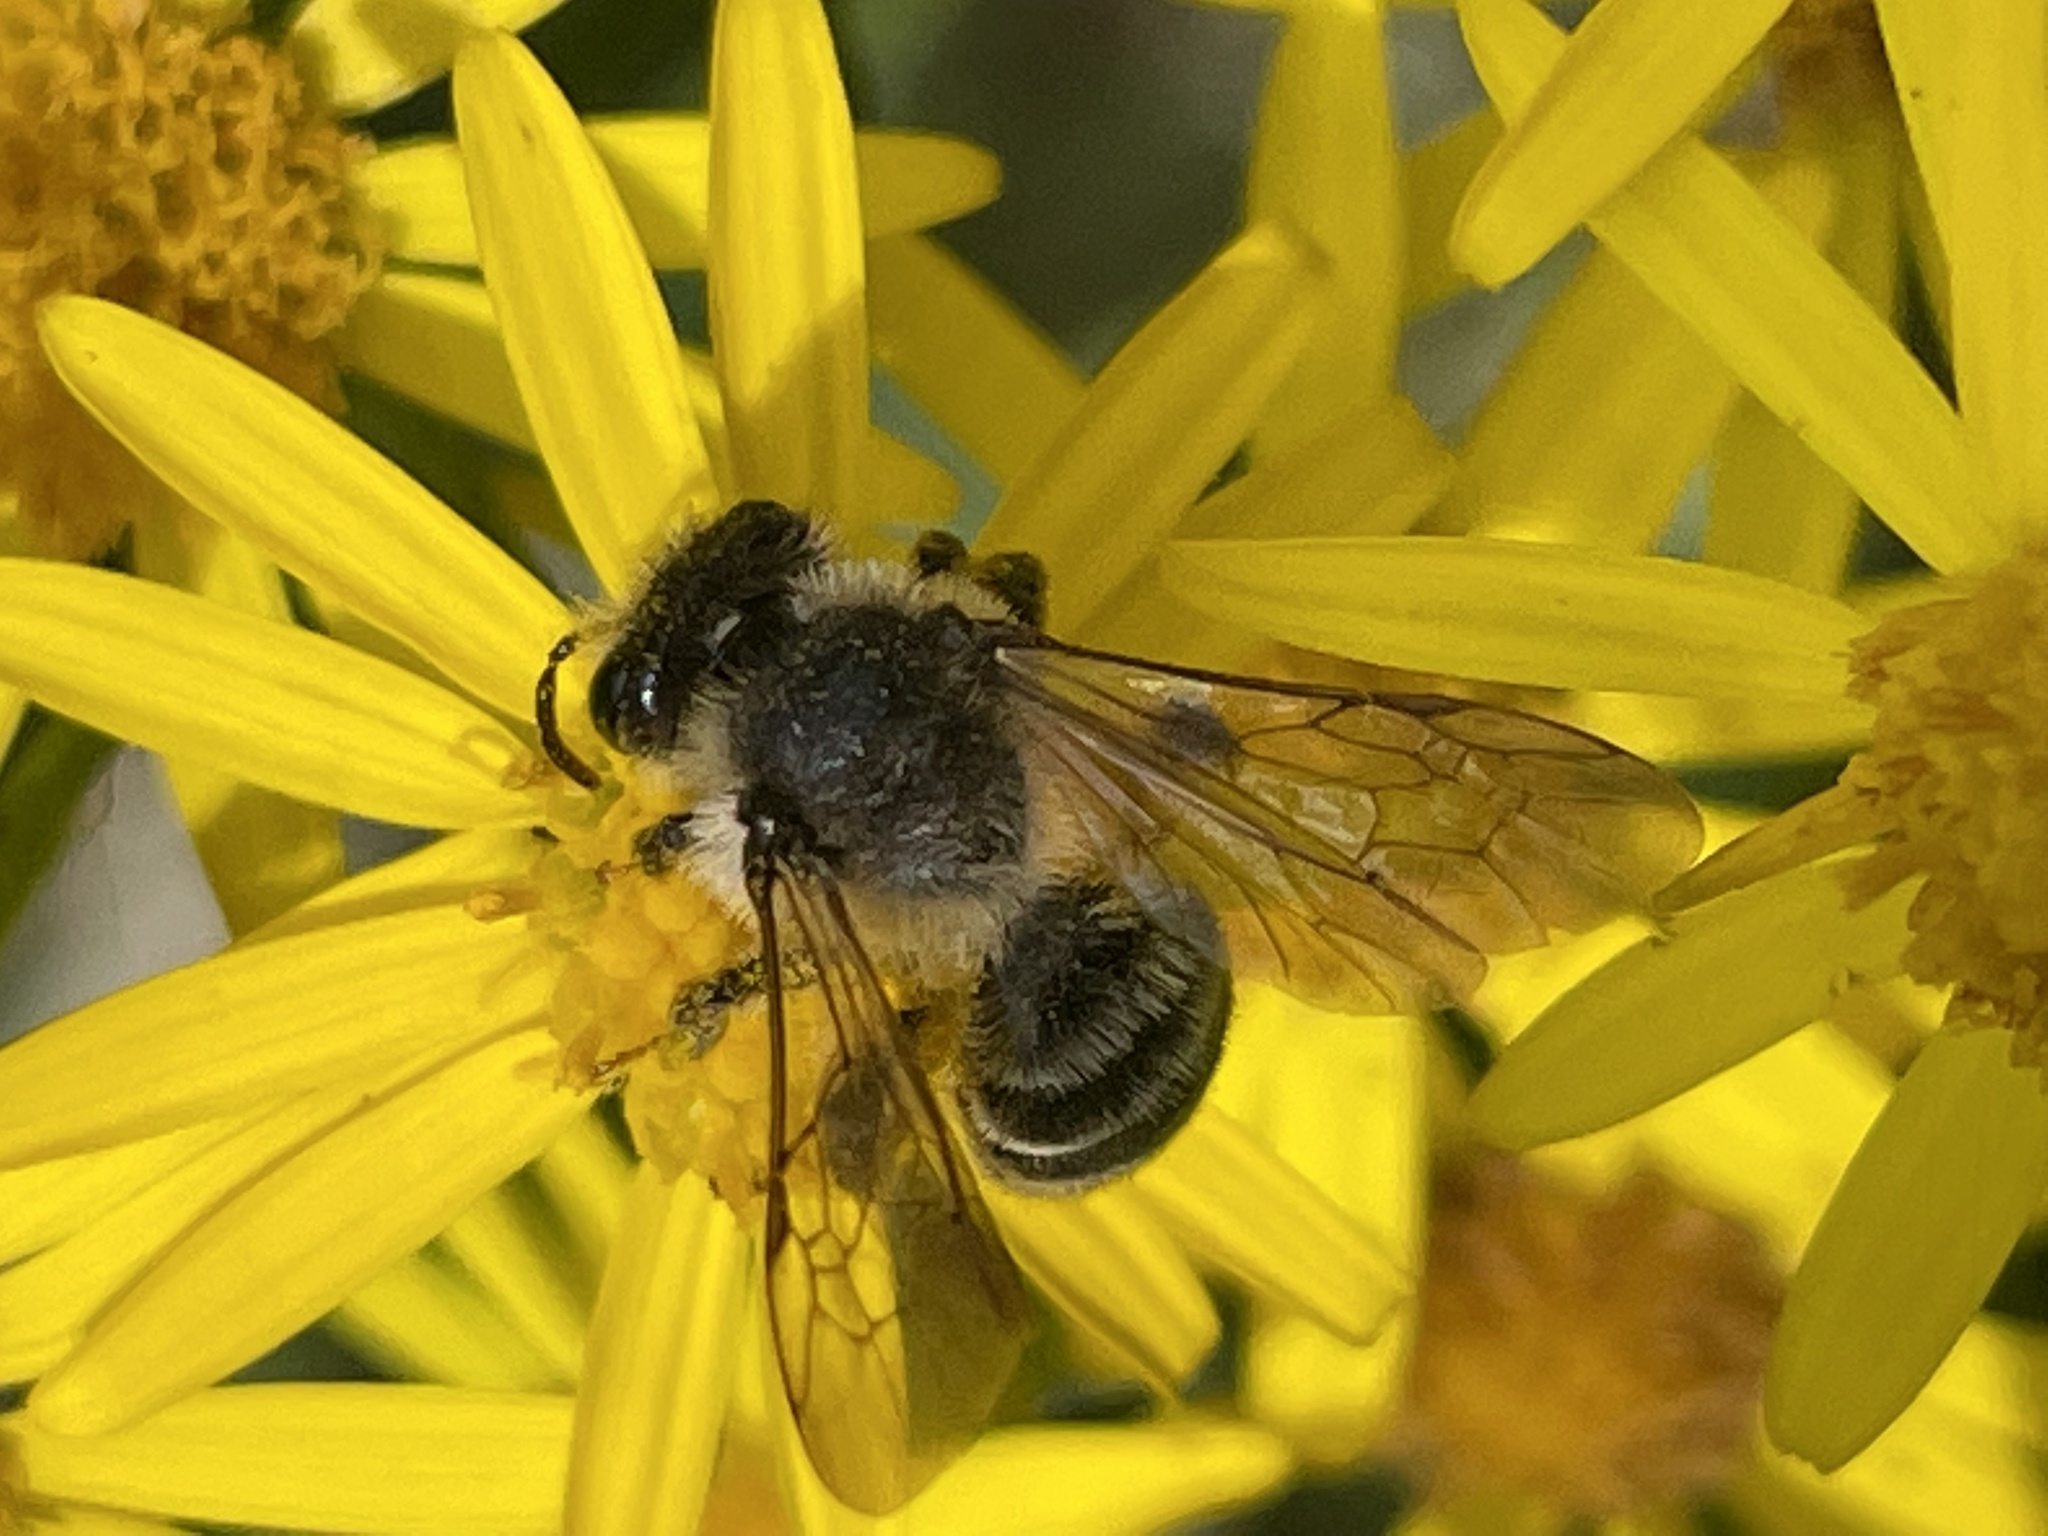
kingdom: Animalia
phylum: Arthropoda
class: Insecta
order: Hymenoptera
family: Andrenidae
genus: Andrena
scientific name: Andrena denticulata
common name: Grey-banded mining bee
